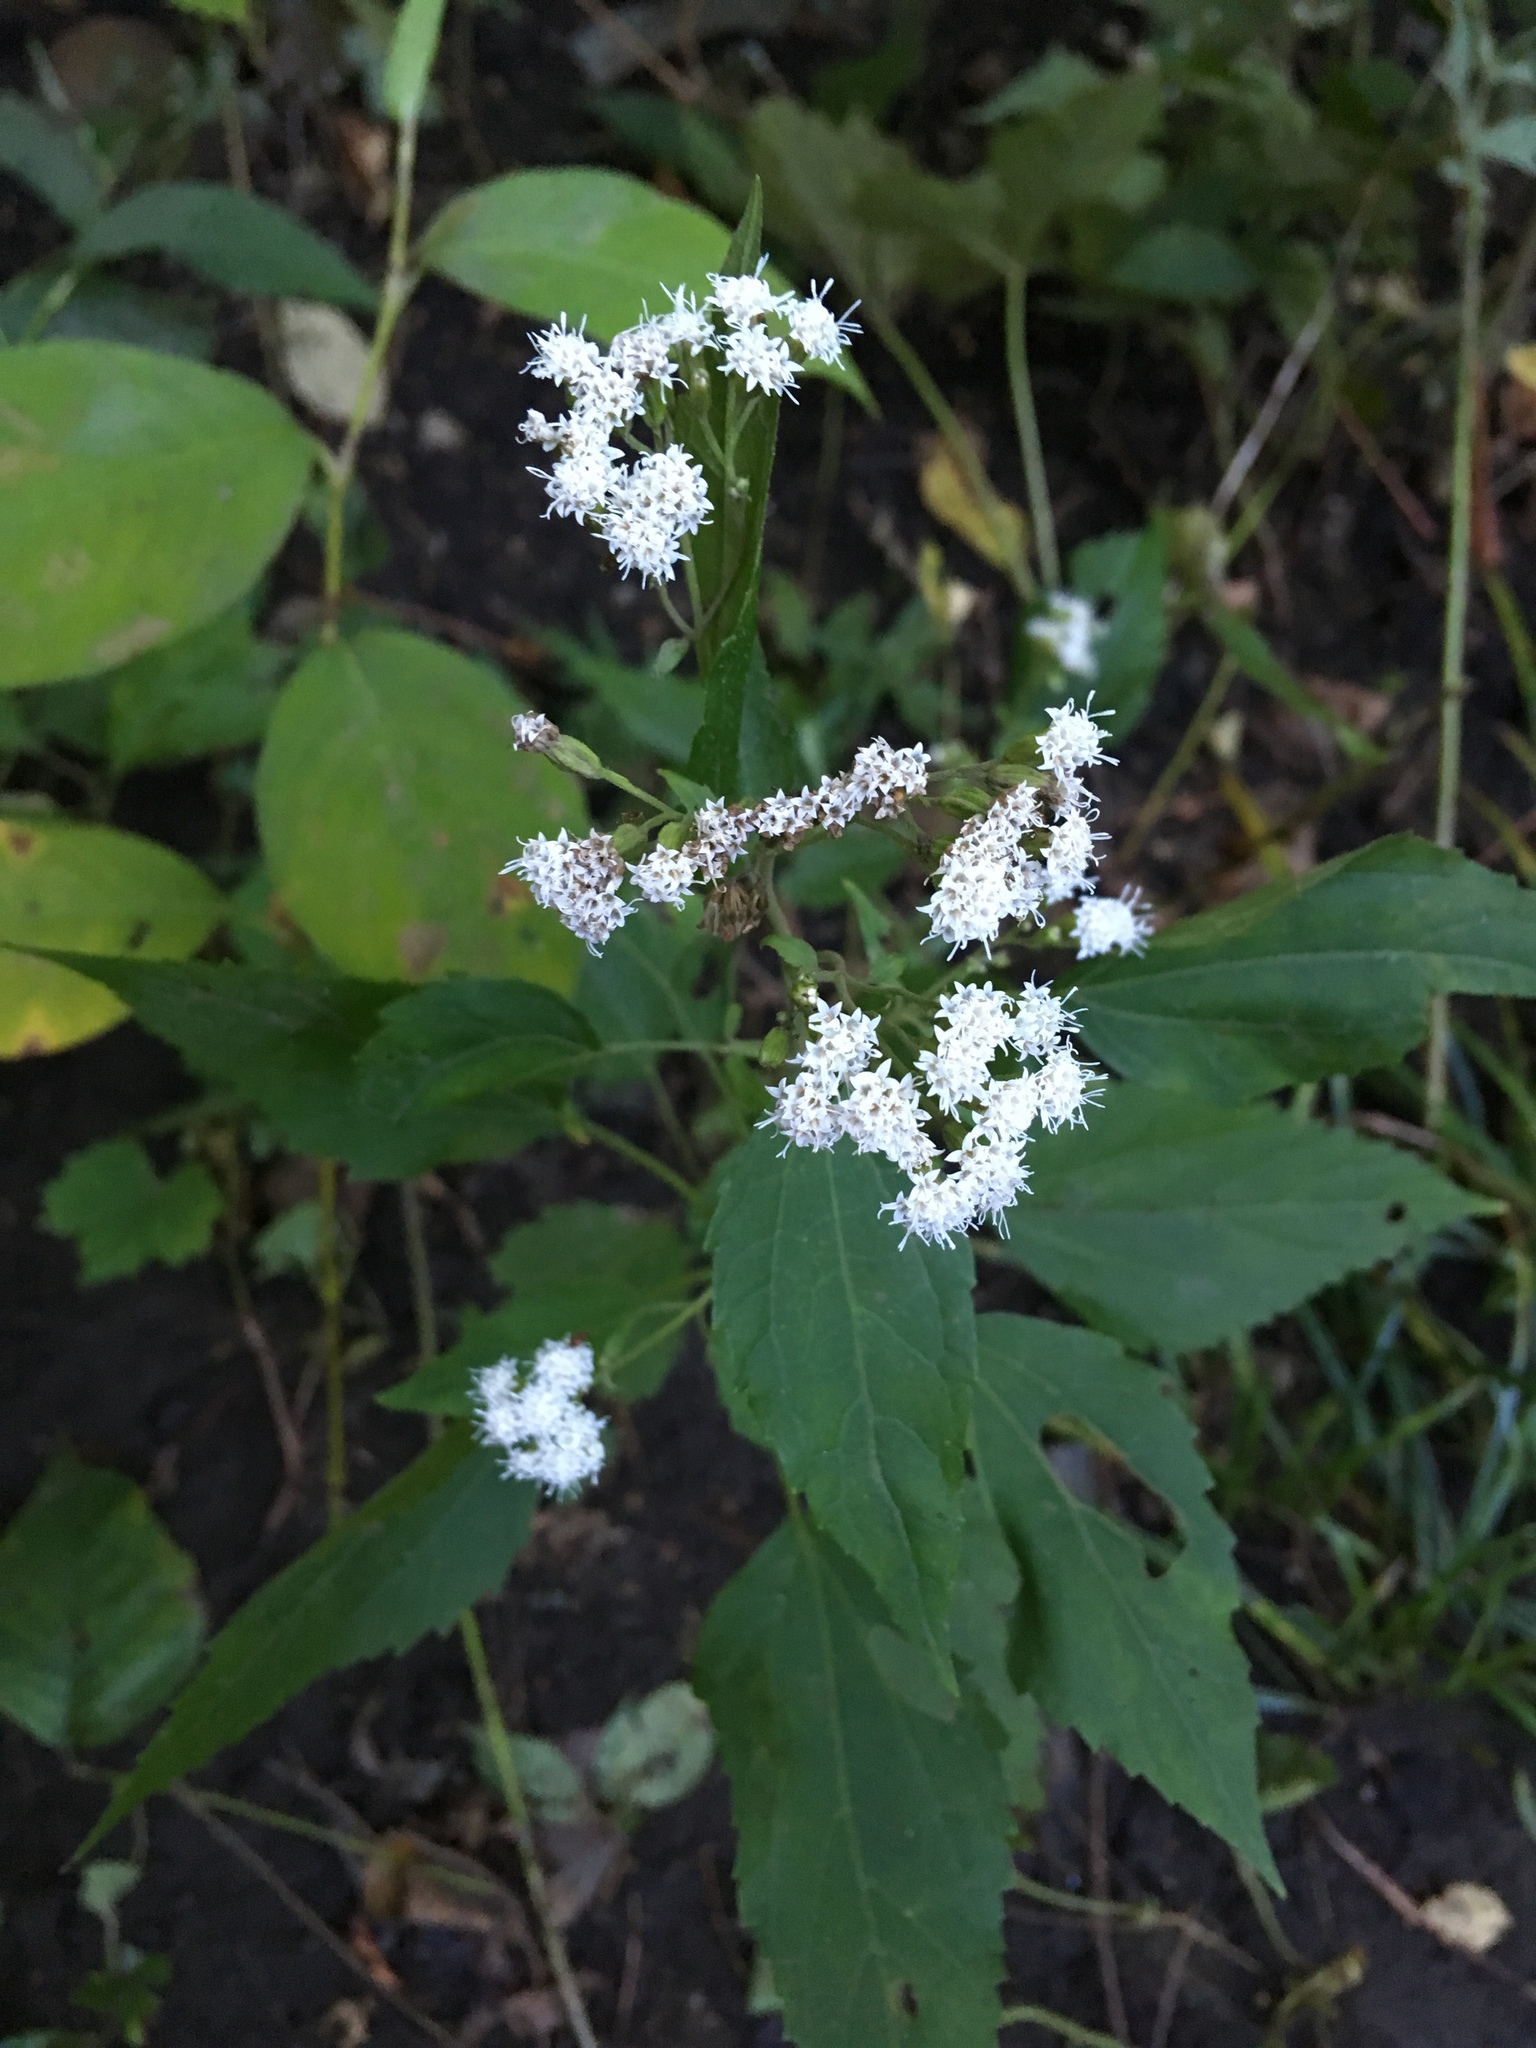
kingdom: Plantae
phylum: Tracheophyta
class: Magnoliopsida
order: Asterales
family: Asteraceae
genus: Ageratina
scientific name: Ageratina altissima
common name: White snakeroot
